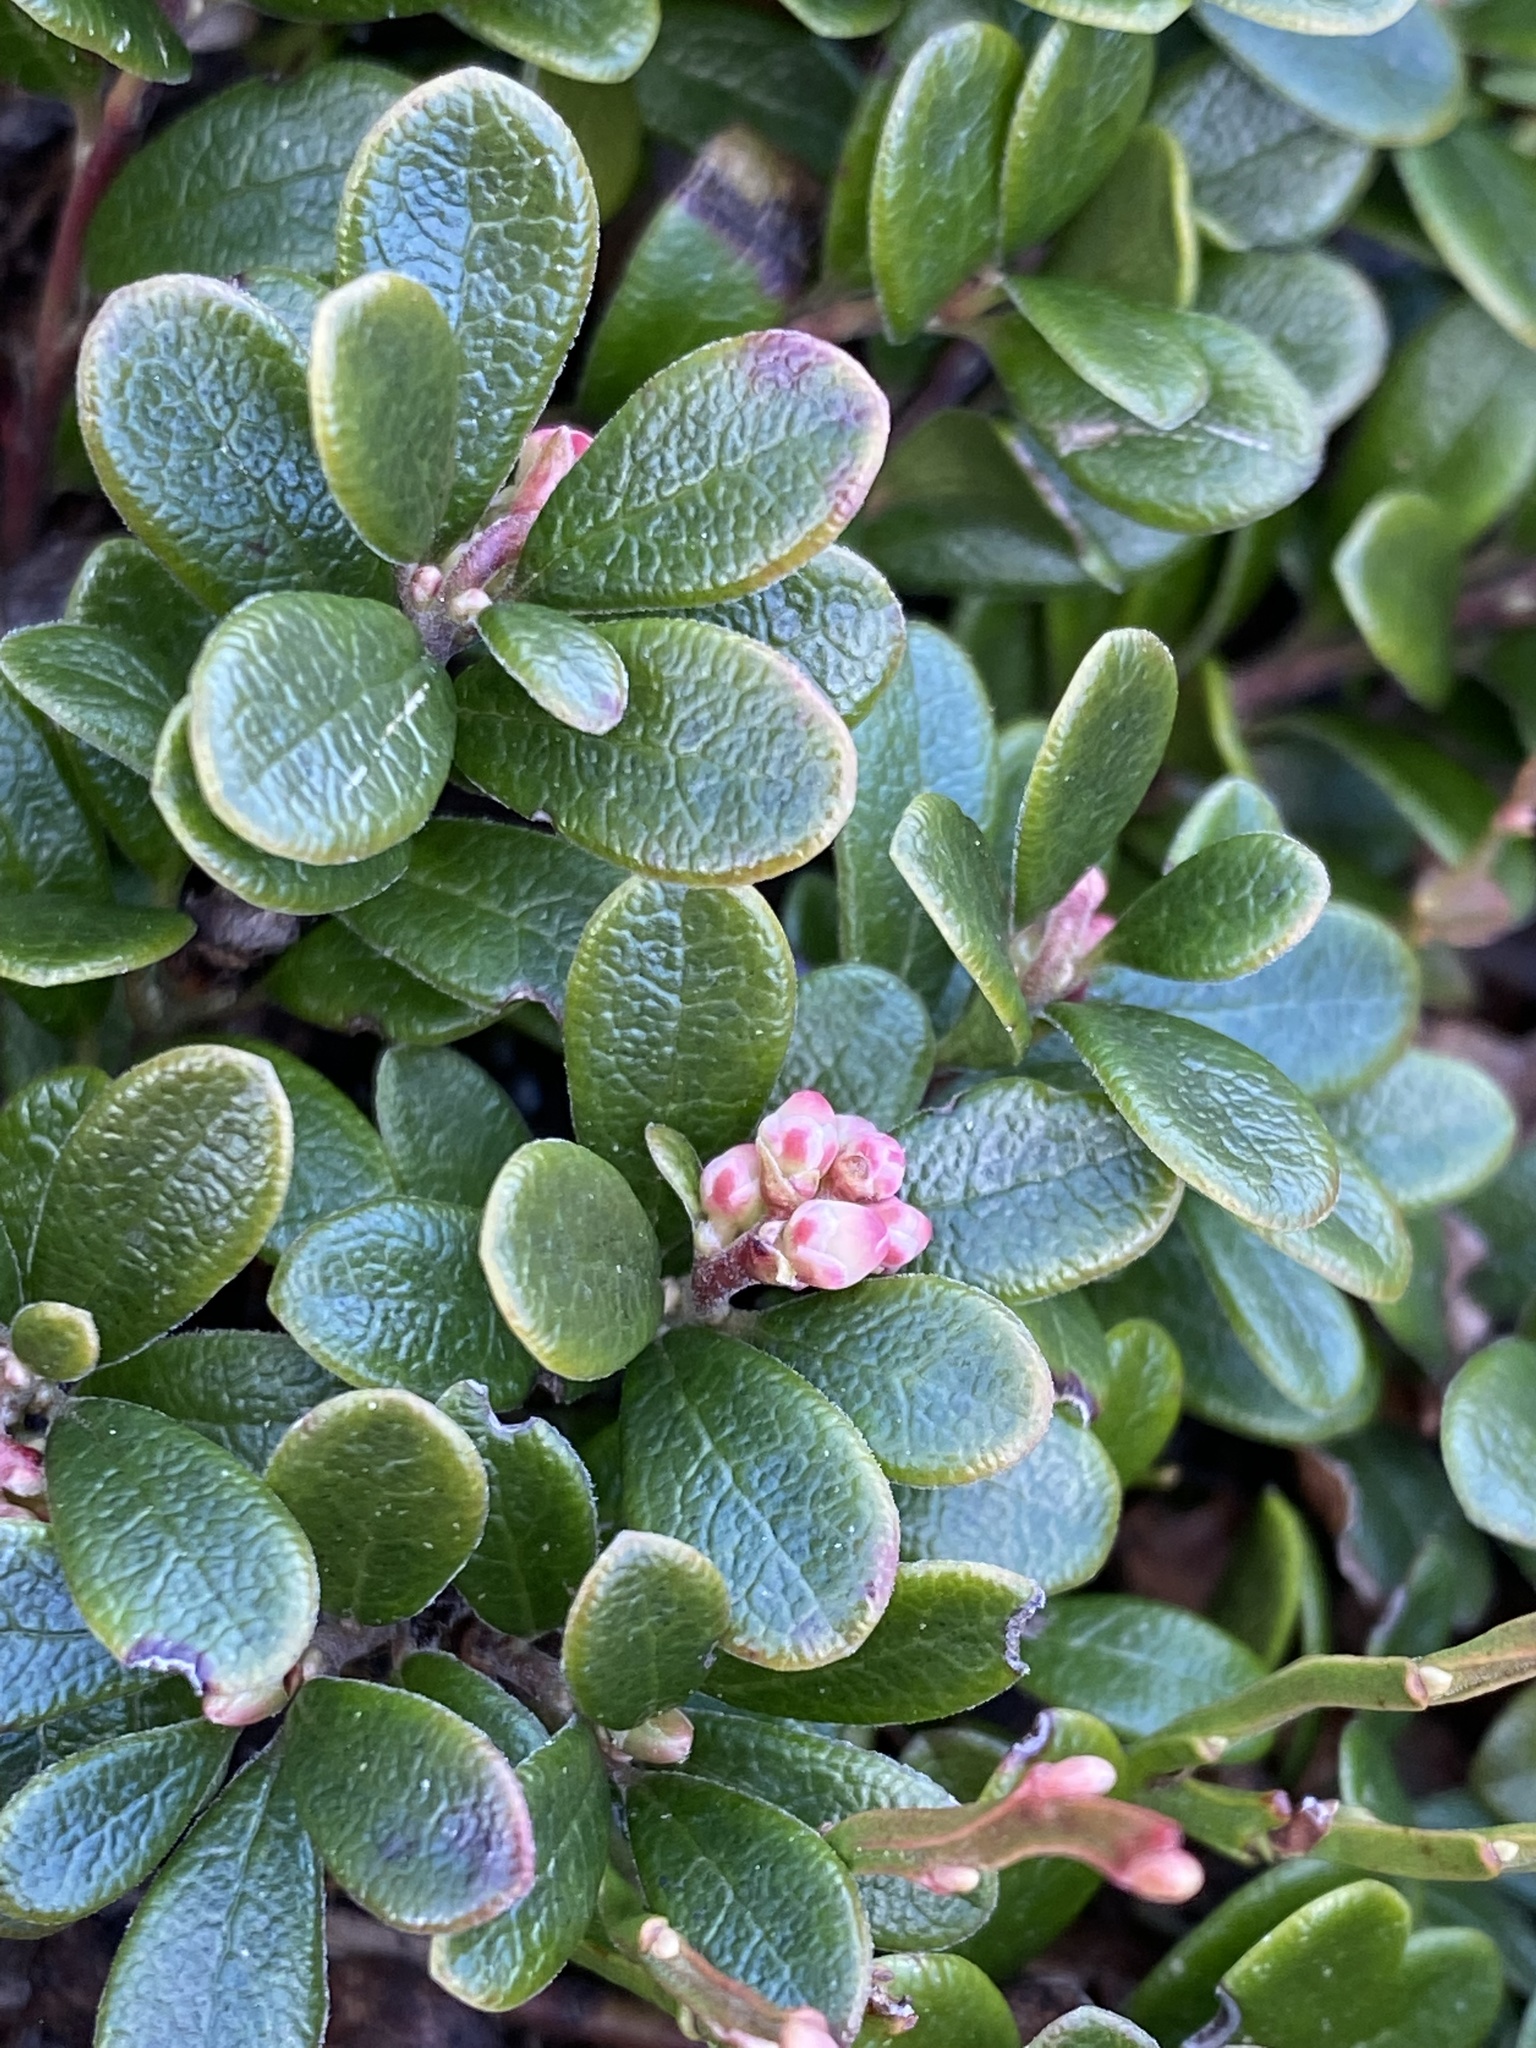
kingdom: Plantae
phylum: Tracheophyta
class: Magnoliopsida
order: Ericales
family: Ericaceae
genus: Arctostaphylos
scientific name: Arctostaphylos uva-ursi
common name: Bearberry
